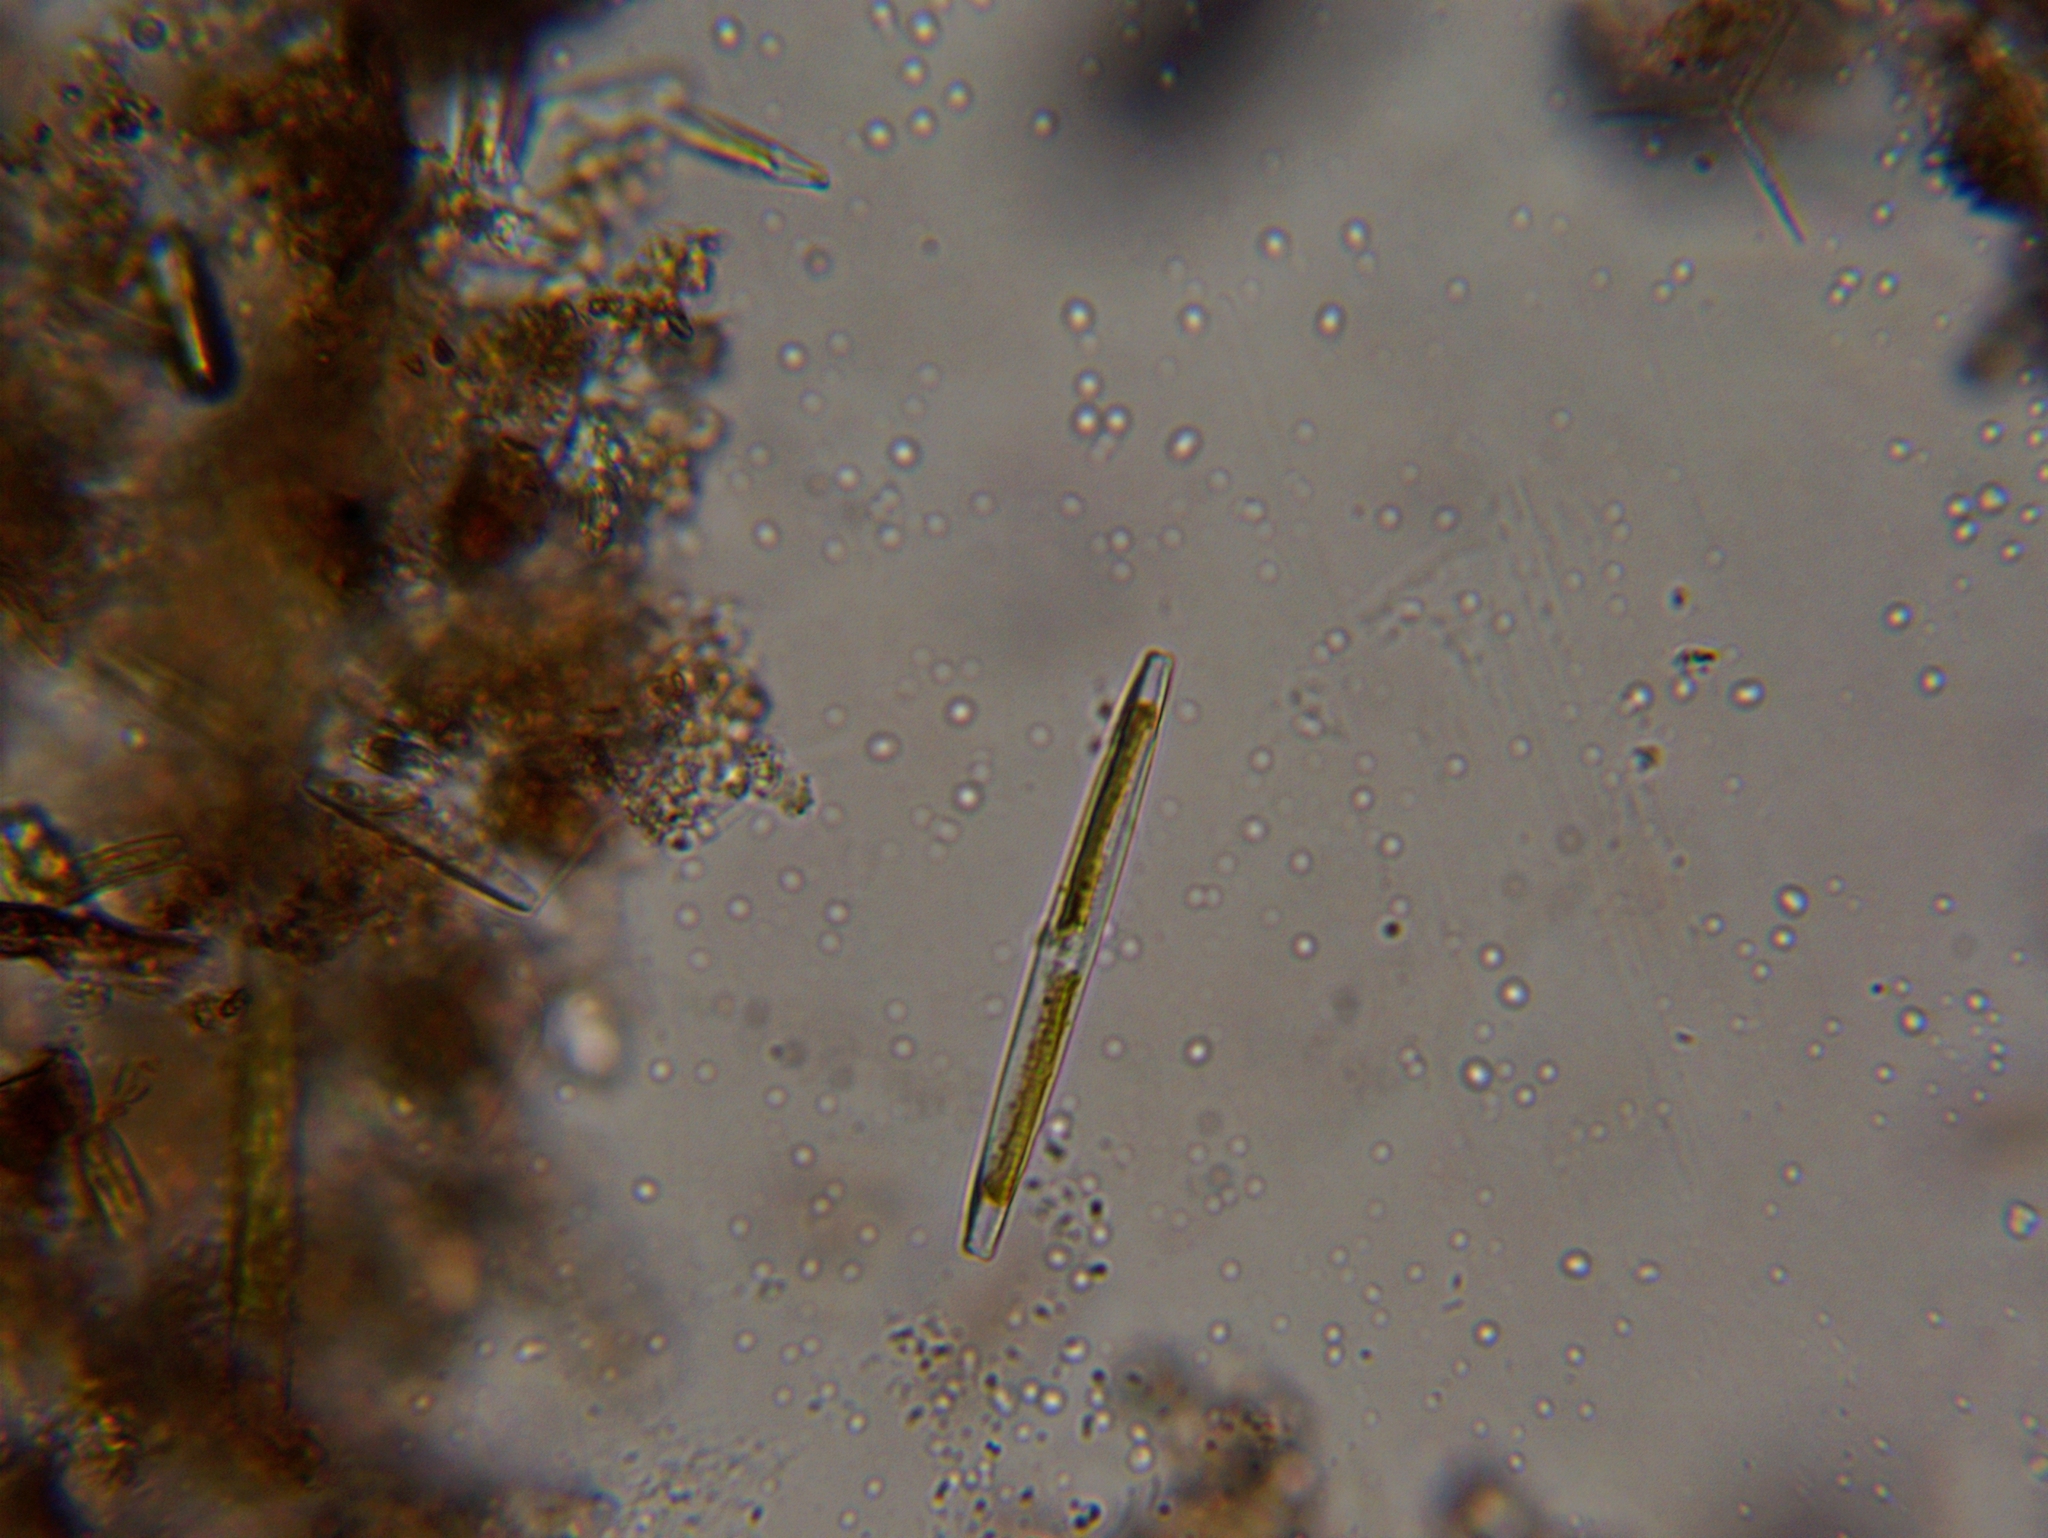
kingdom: Chromista
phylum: Ochrophyta
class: Bacillariophyceae
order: Bacillariales
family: Bacillariaceae
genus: Nitzschia
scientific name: Nitzschia
